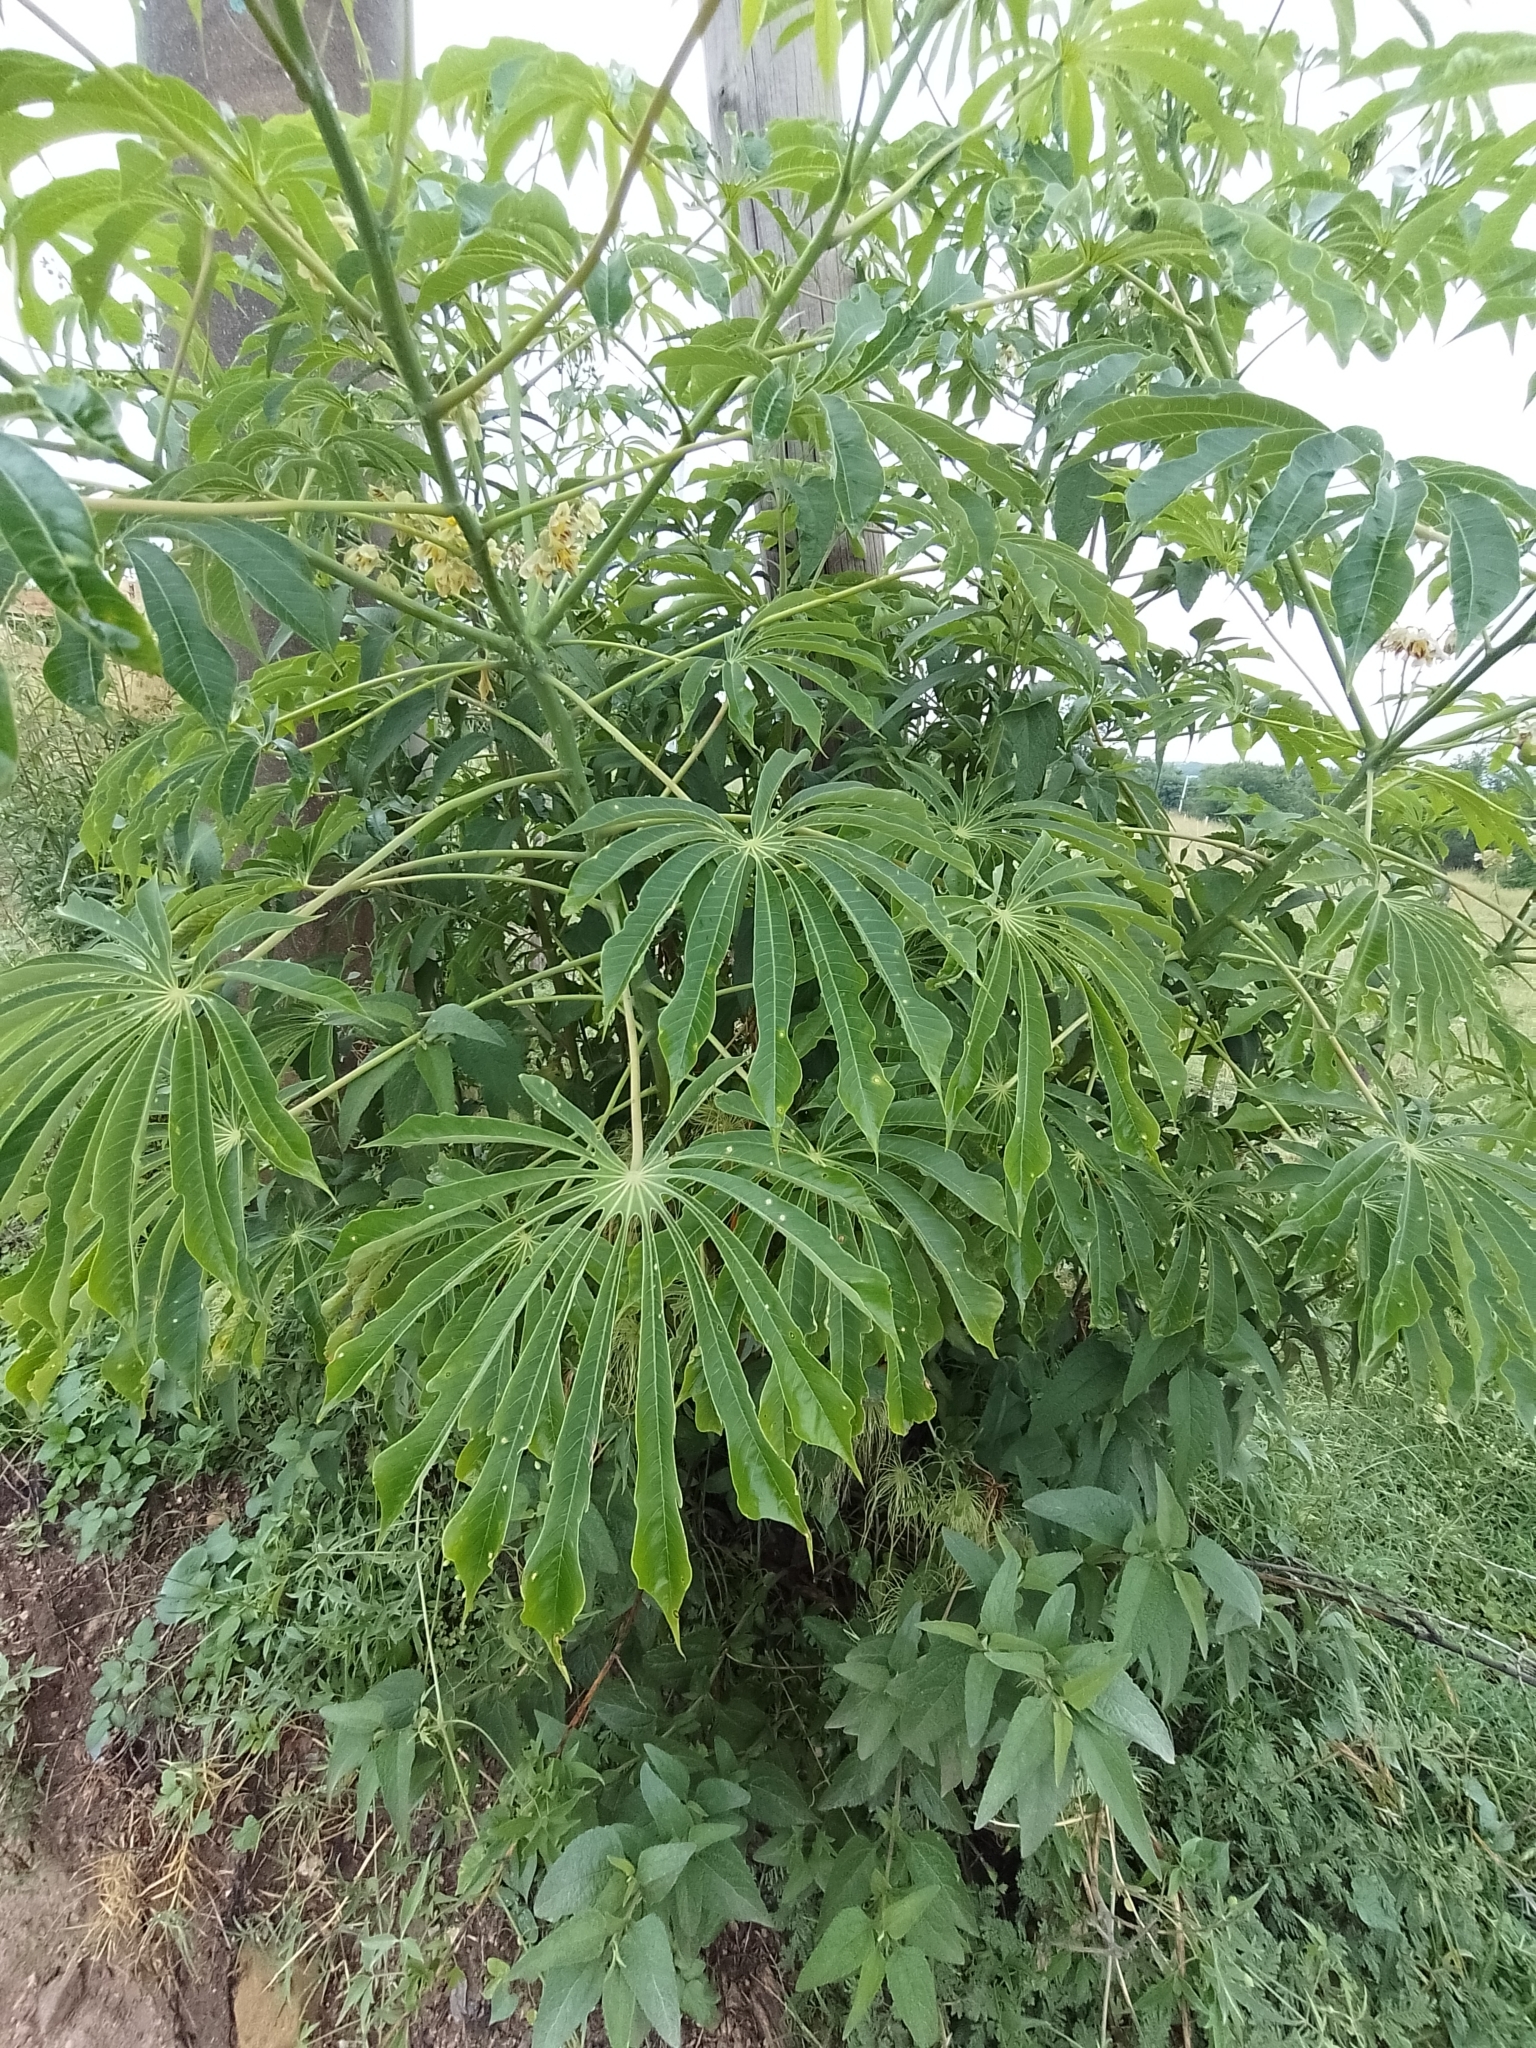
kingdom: Plantae
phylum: Tracheophyta
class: Magnoliopsida
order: Malpighiales
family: Euphorbiaceae
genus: Manihot
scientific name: Manihot grahamii
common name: Graham's manihot
